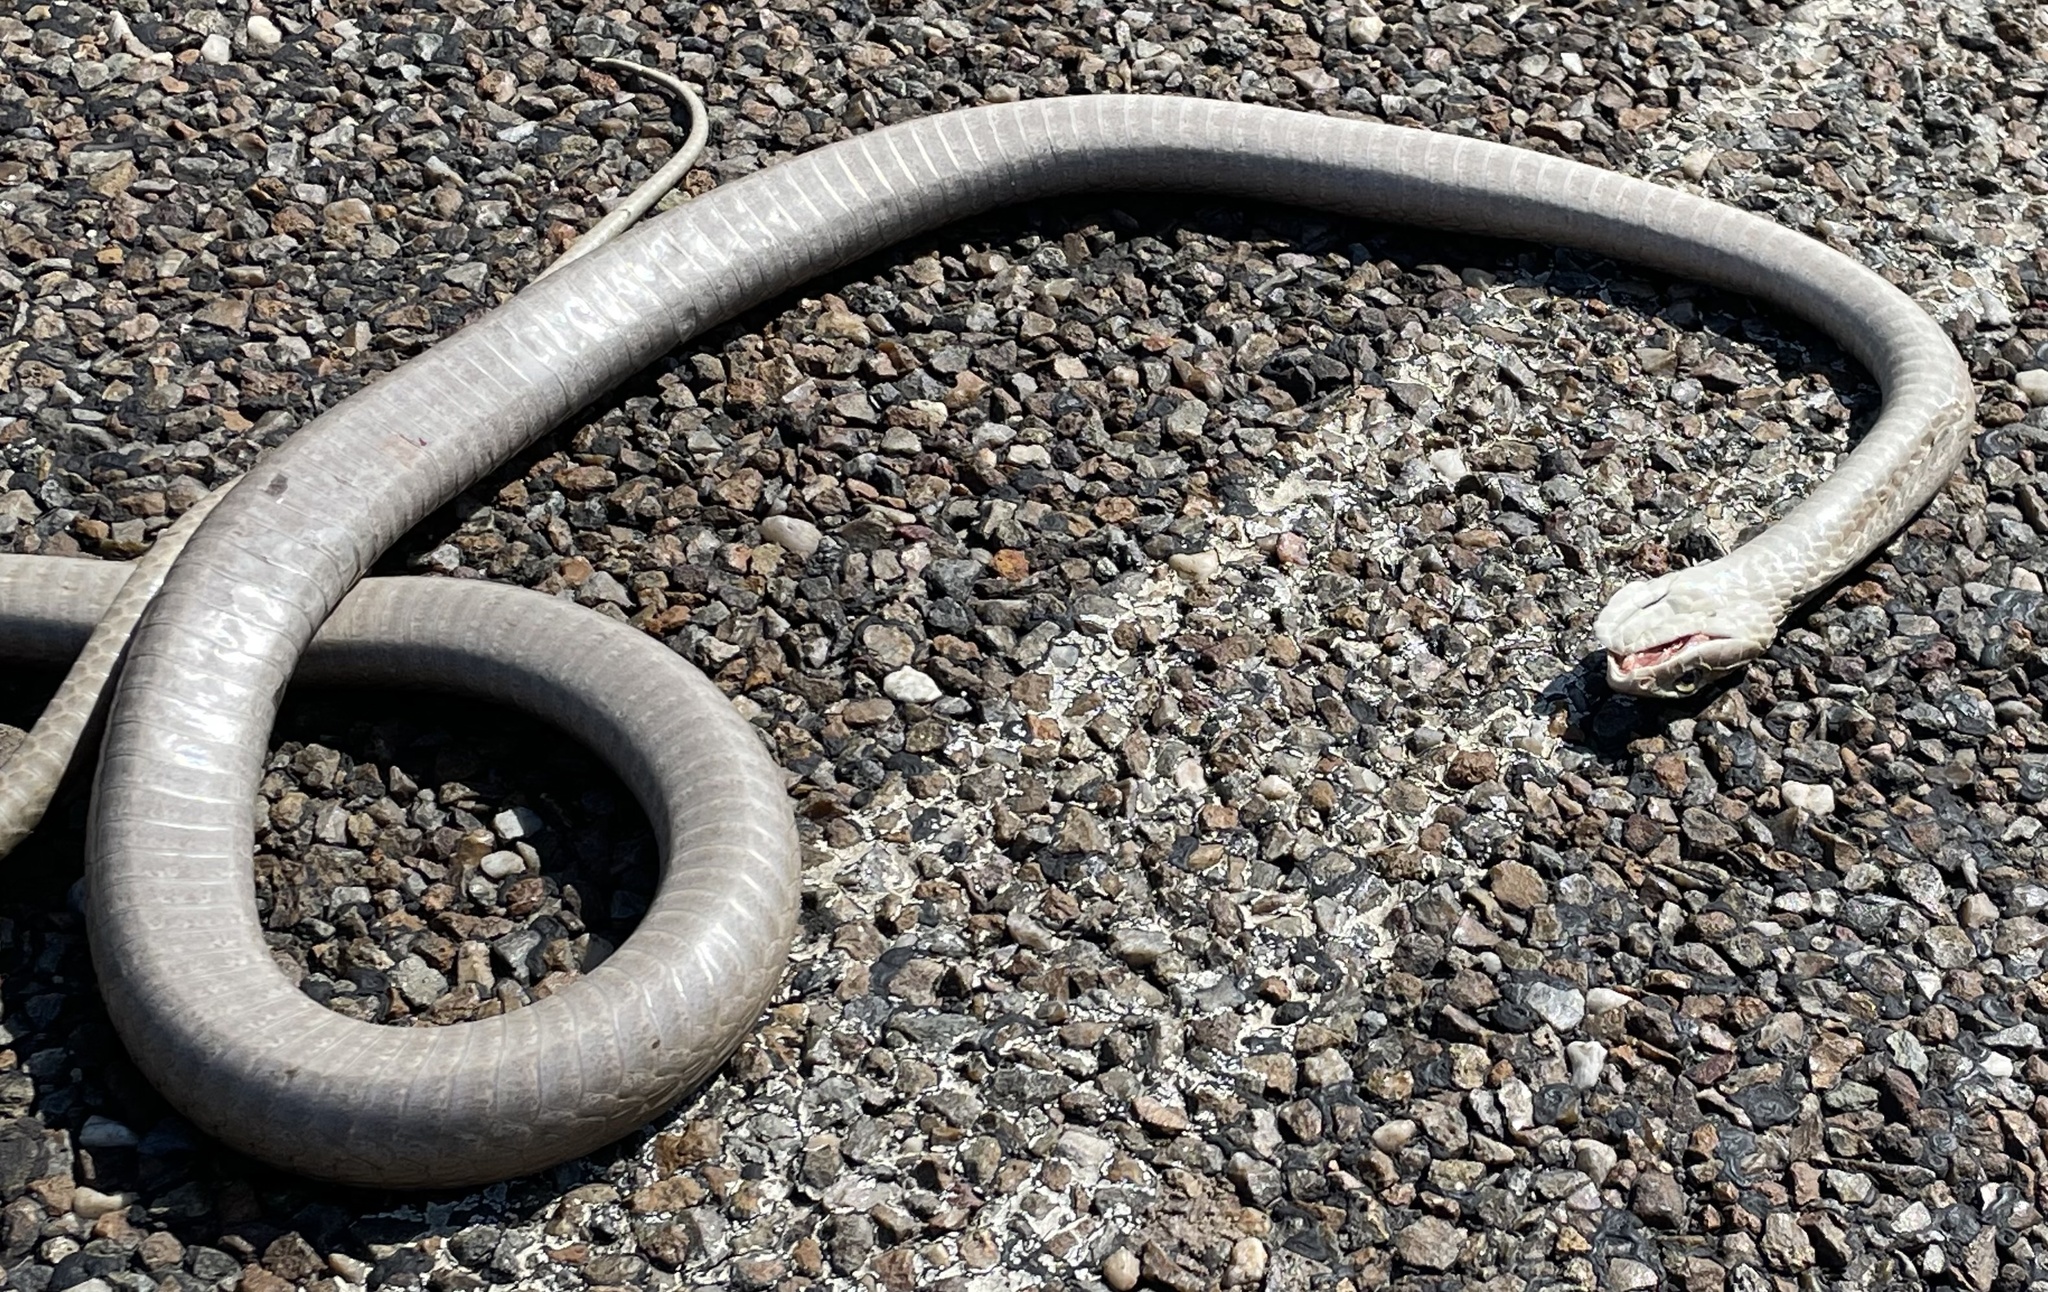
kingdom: Animalia
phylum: Chordata
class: Squamata
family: Colubridae
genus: Dispholidus
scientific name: Dispholidus typus
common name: Boomslang
